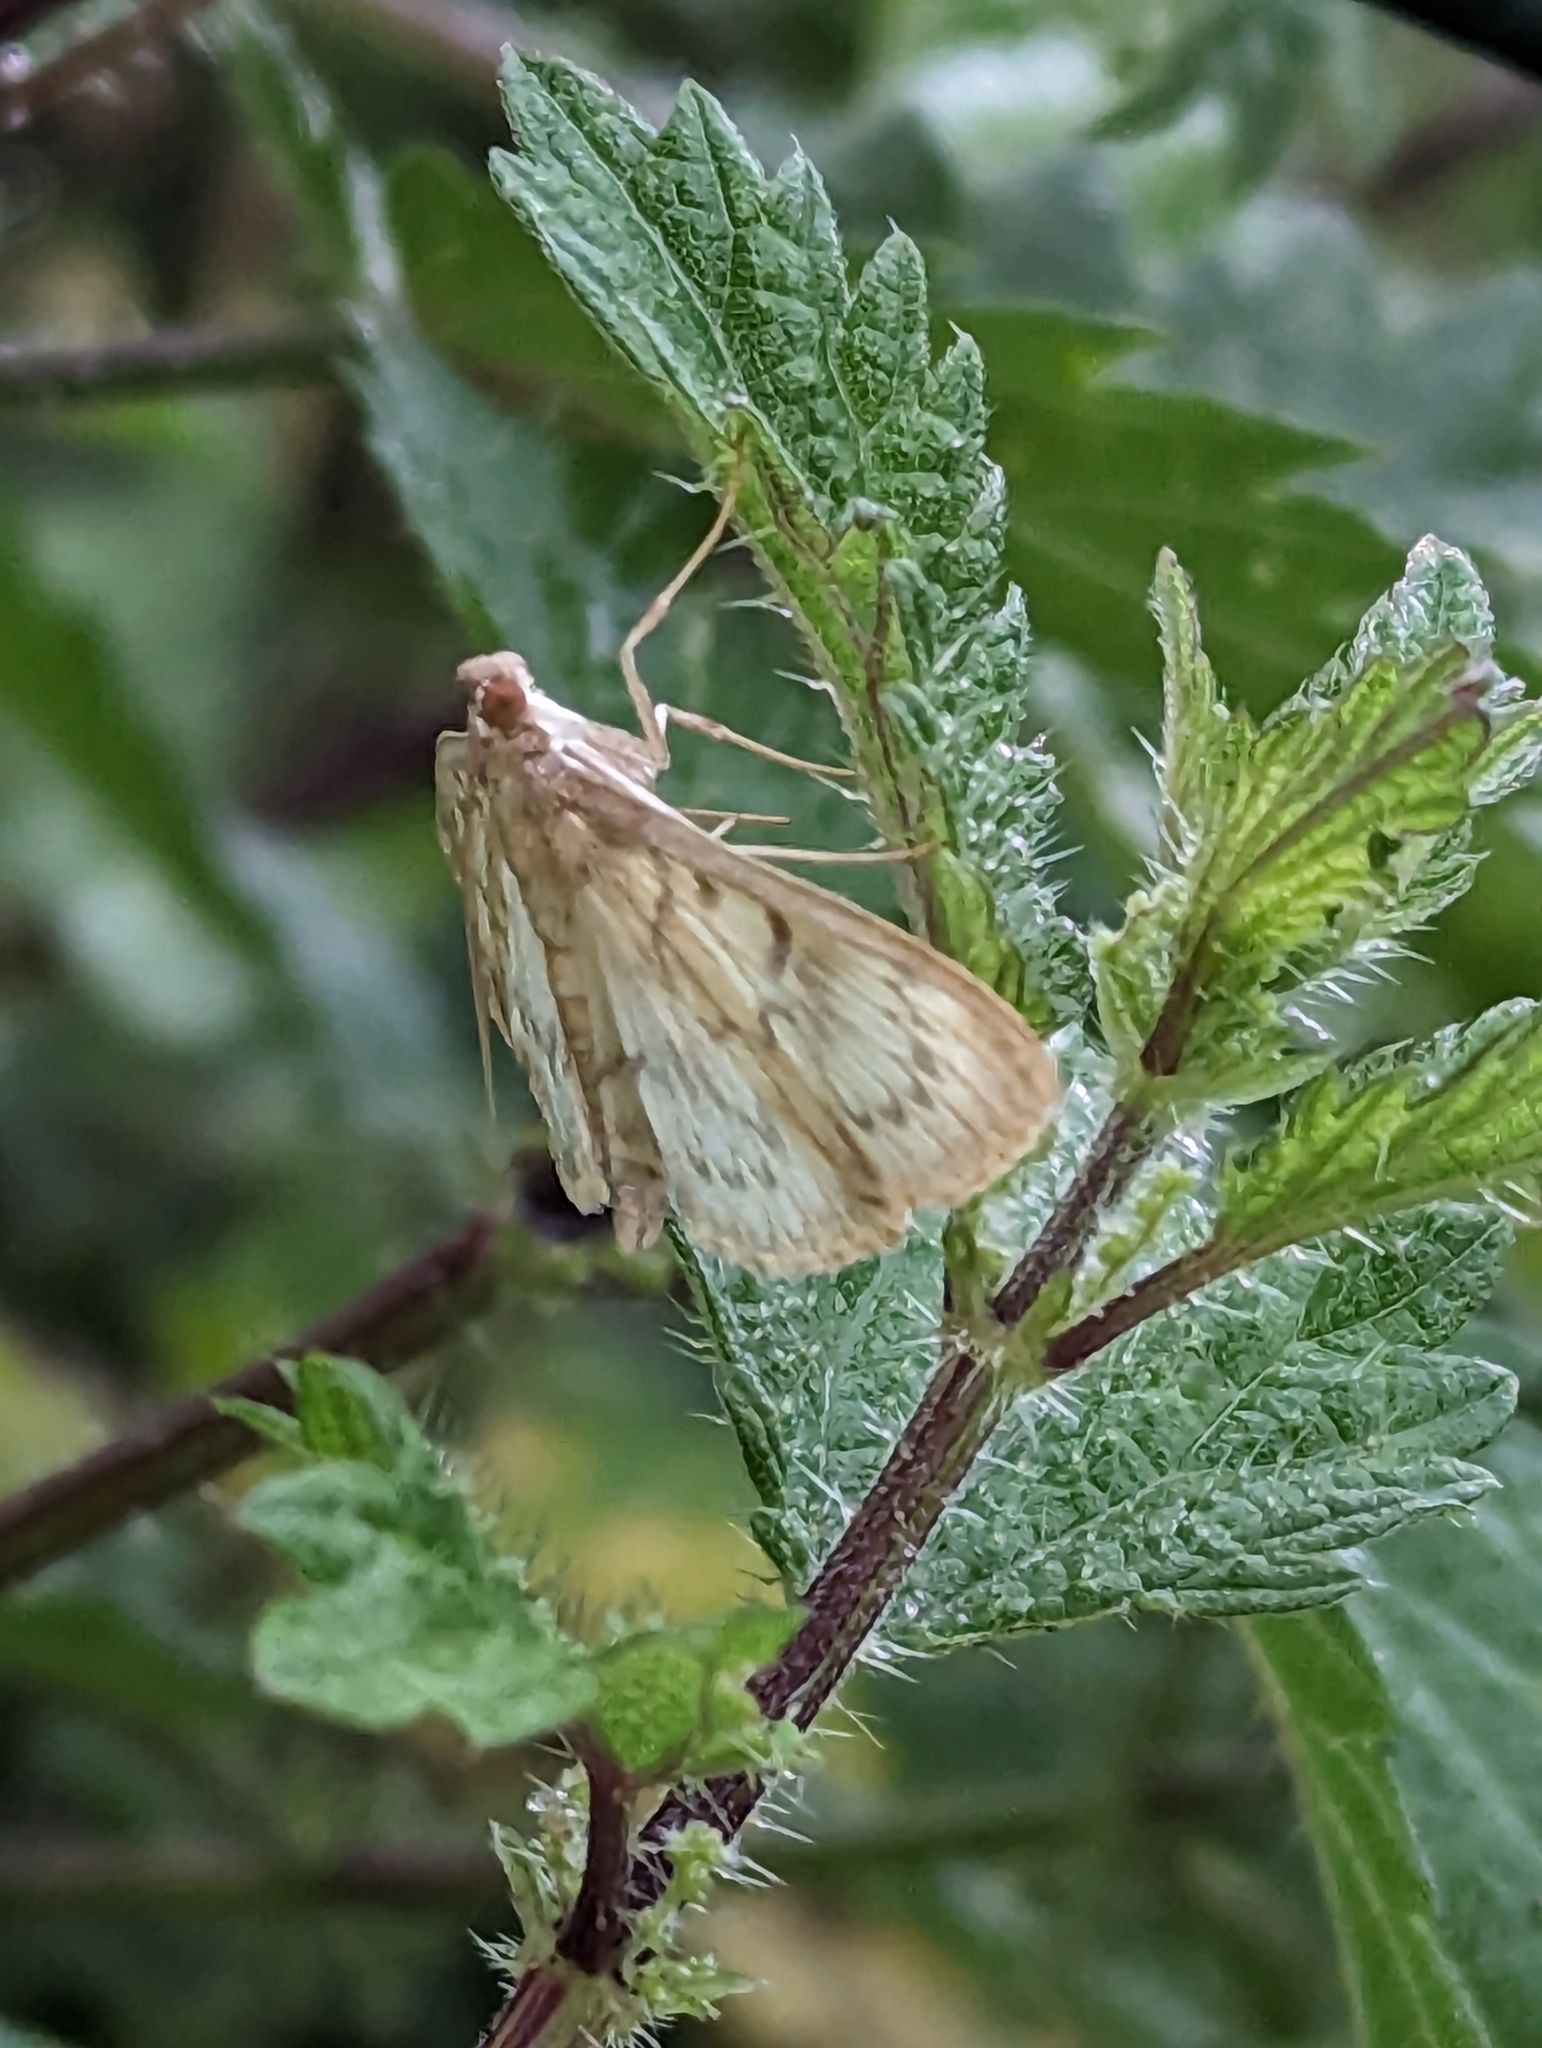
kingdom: Animalia
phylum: Arthropoda
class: Insecta
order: Lepidoptera
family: Crambidae
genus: Patania
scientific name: Patania ruralis
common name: Mother of pearl
